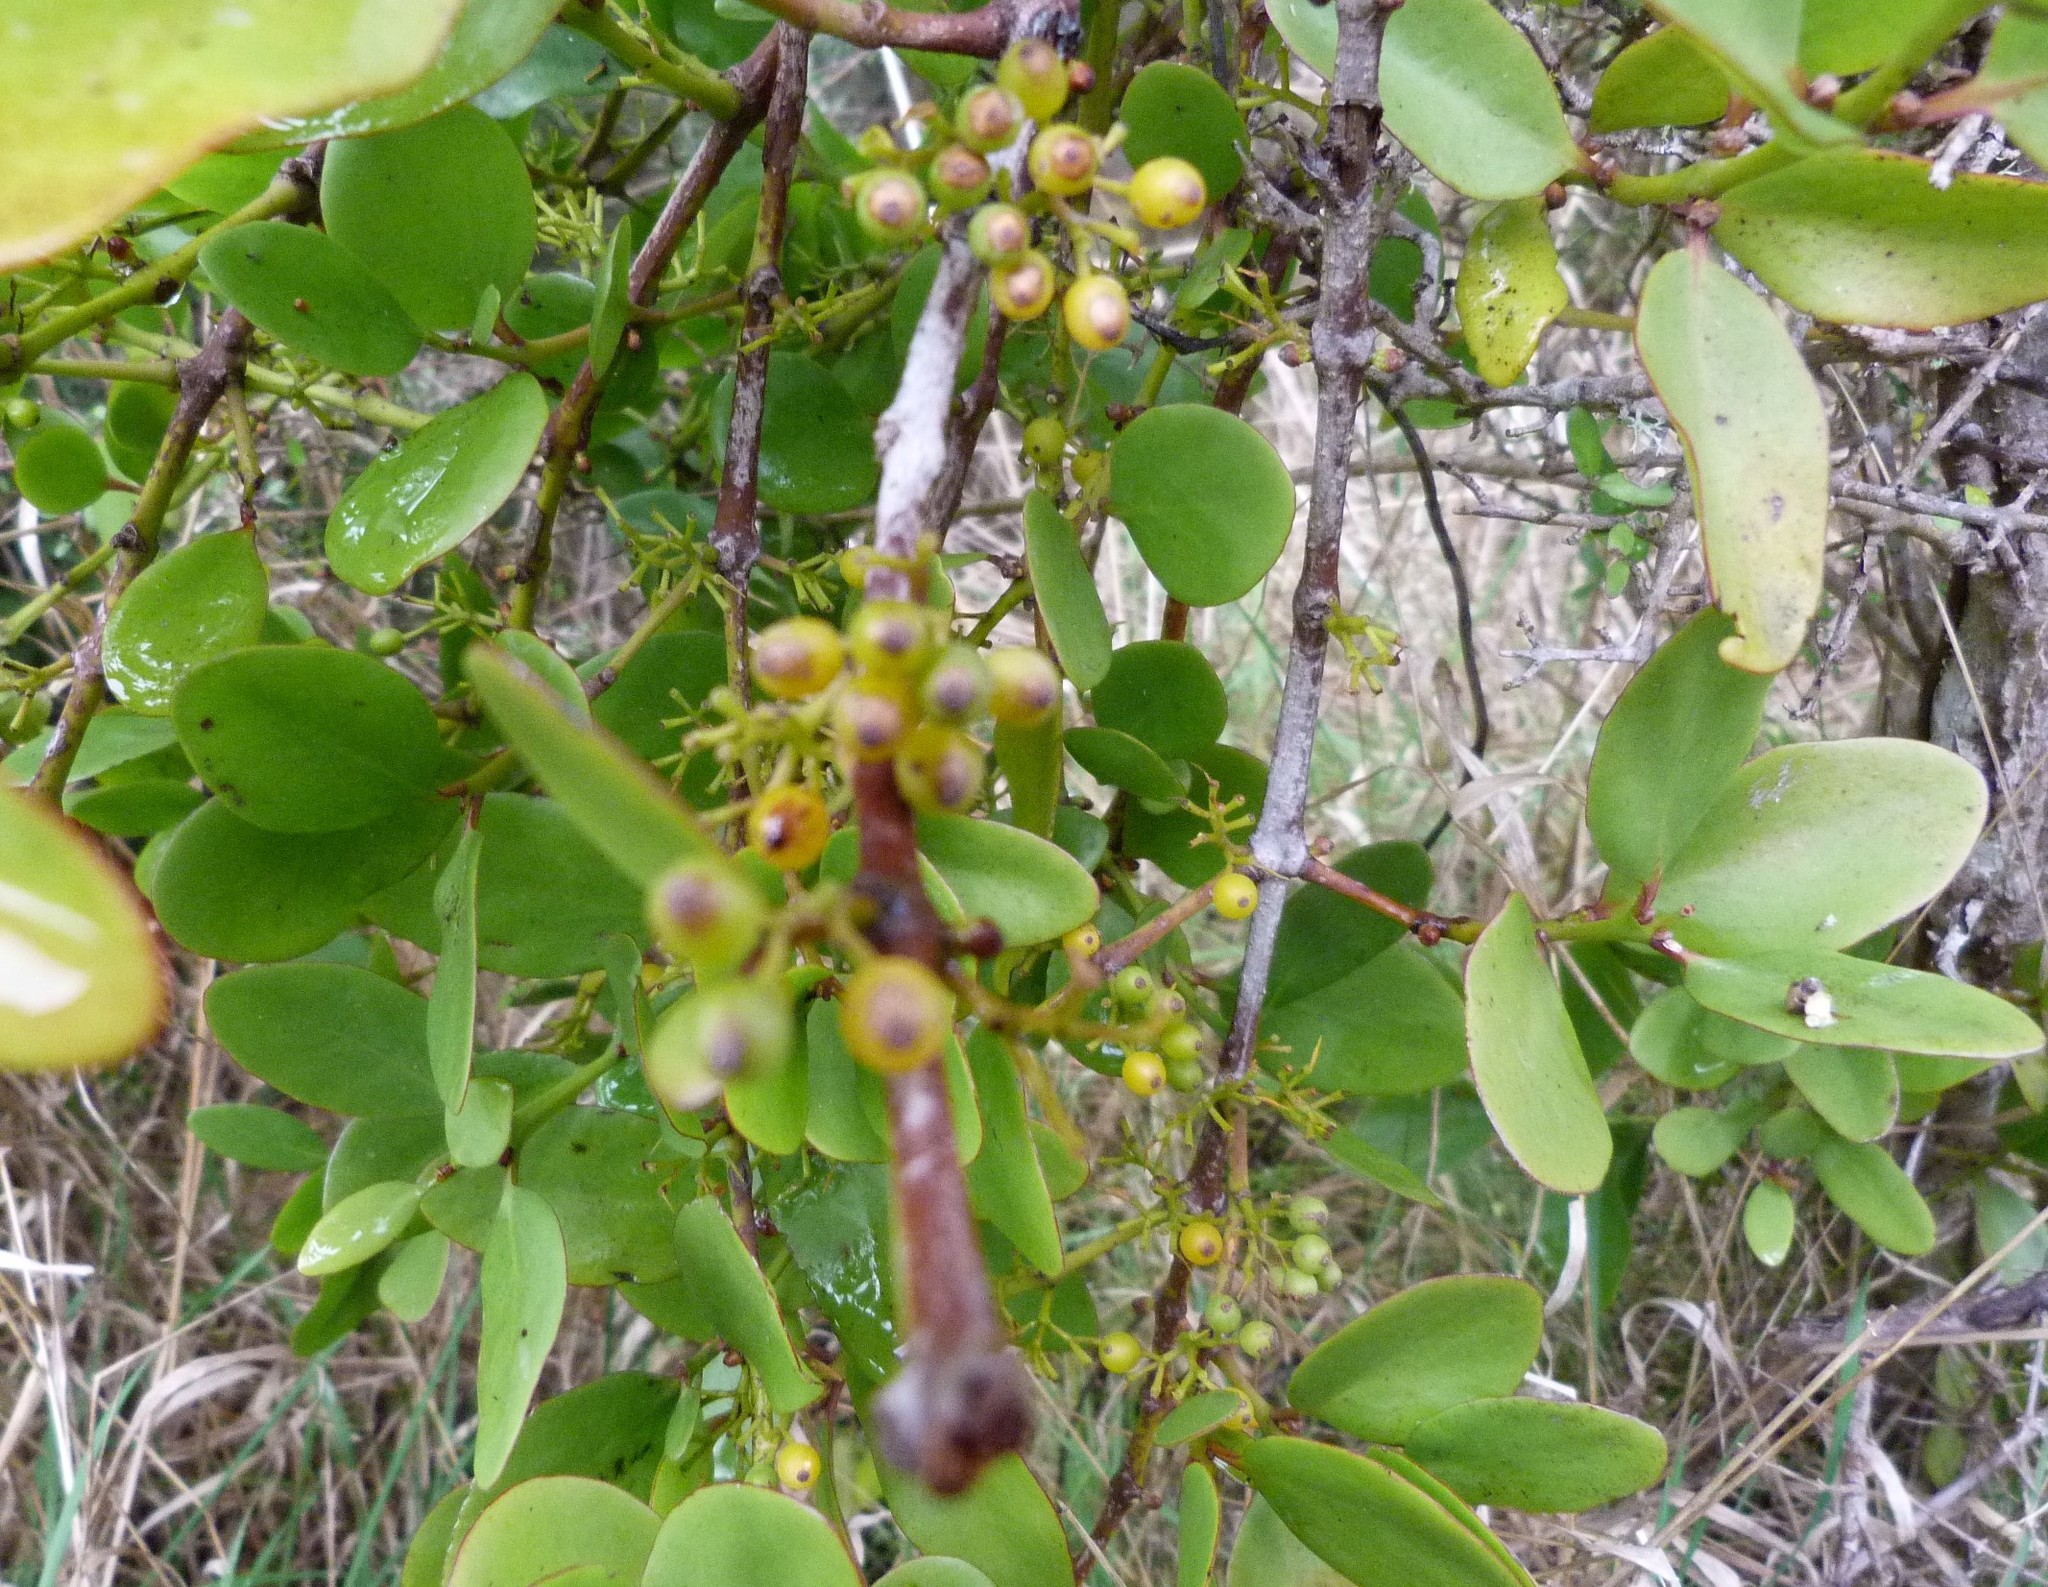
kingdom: Plantae
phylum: Tracheophyta
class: Magnoliopsida
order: Santalales
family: Loranthaceae
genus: Ileostylus
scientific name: Ileostylus micranthus
